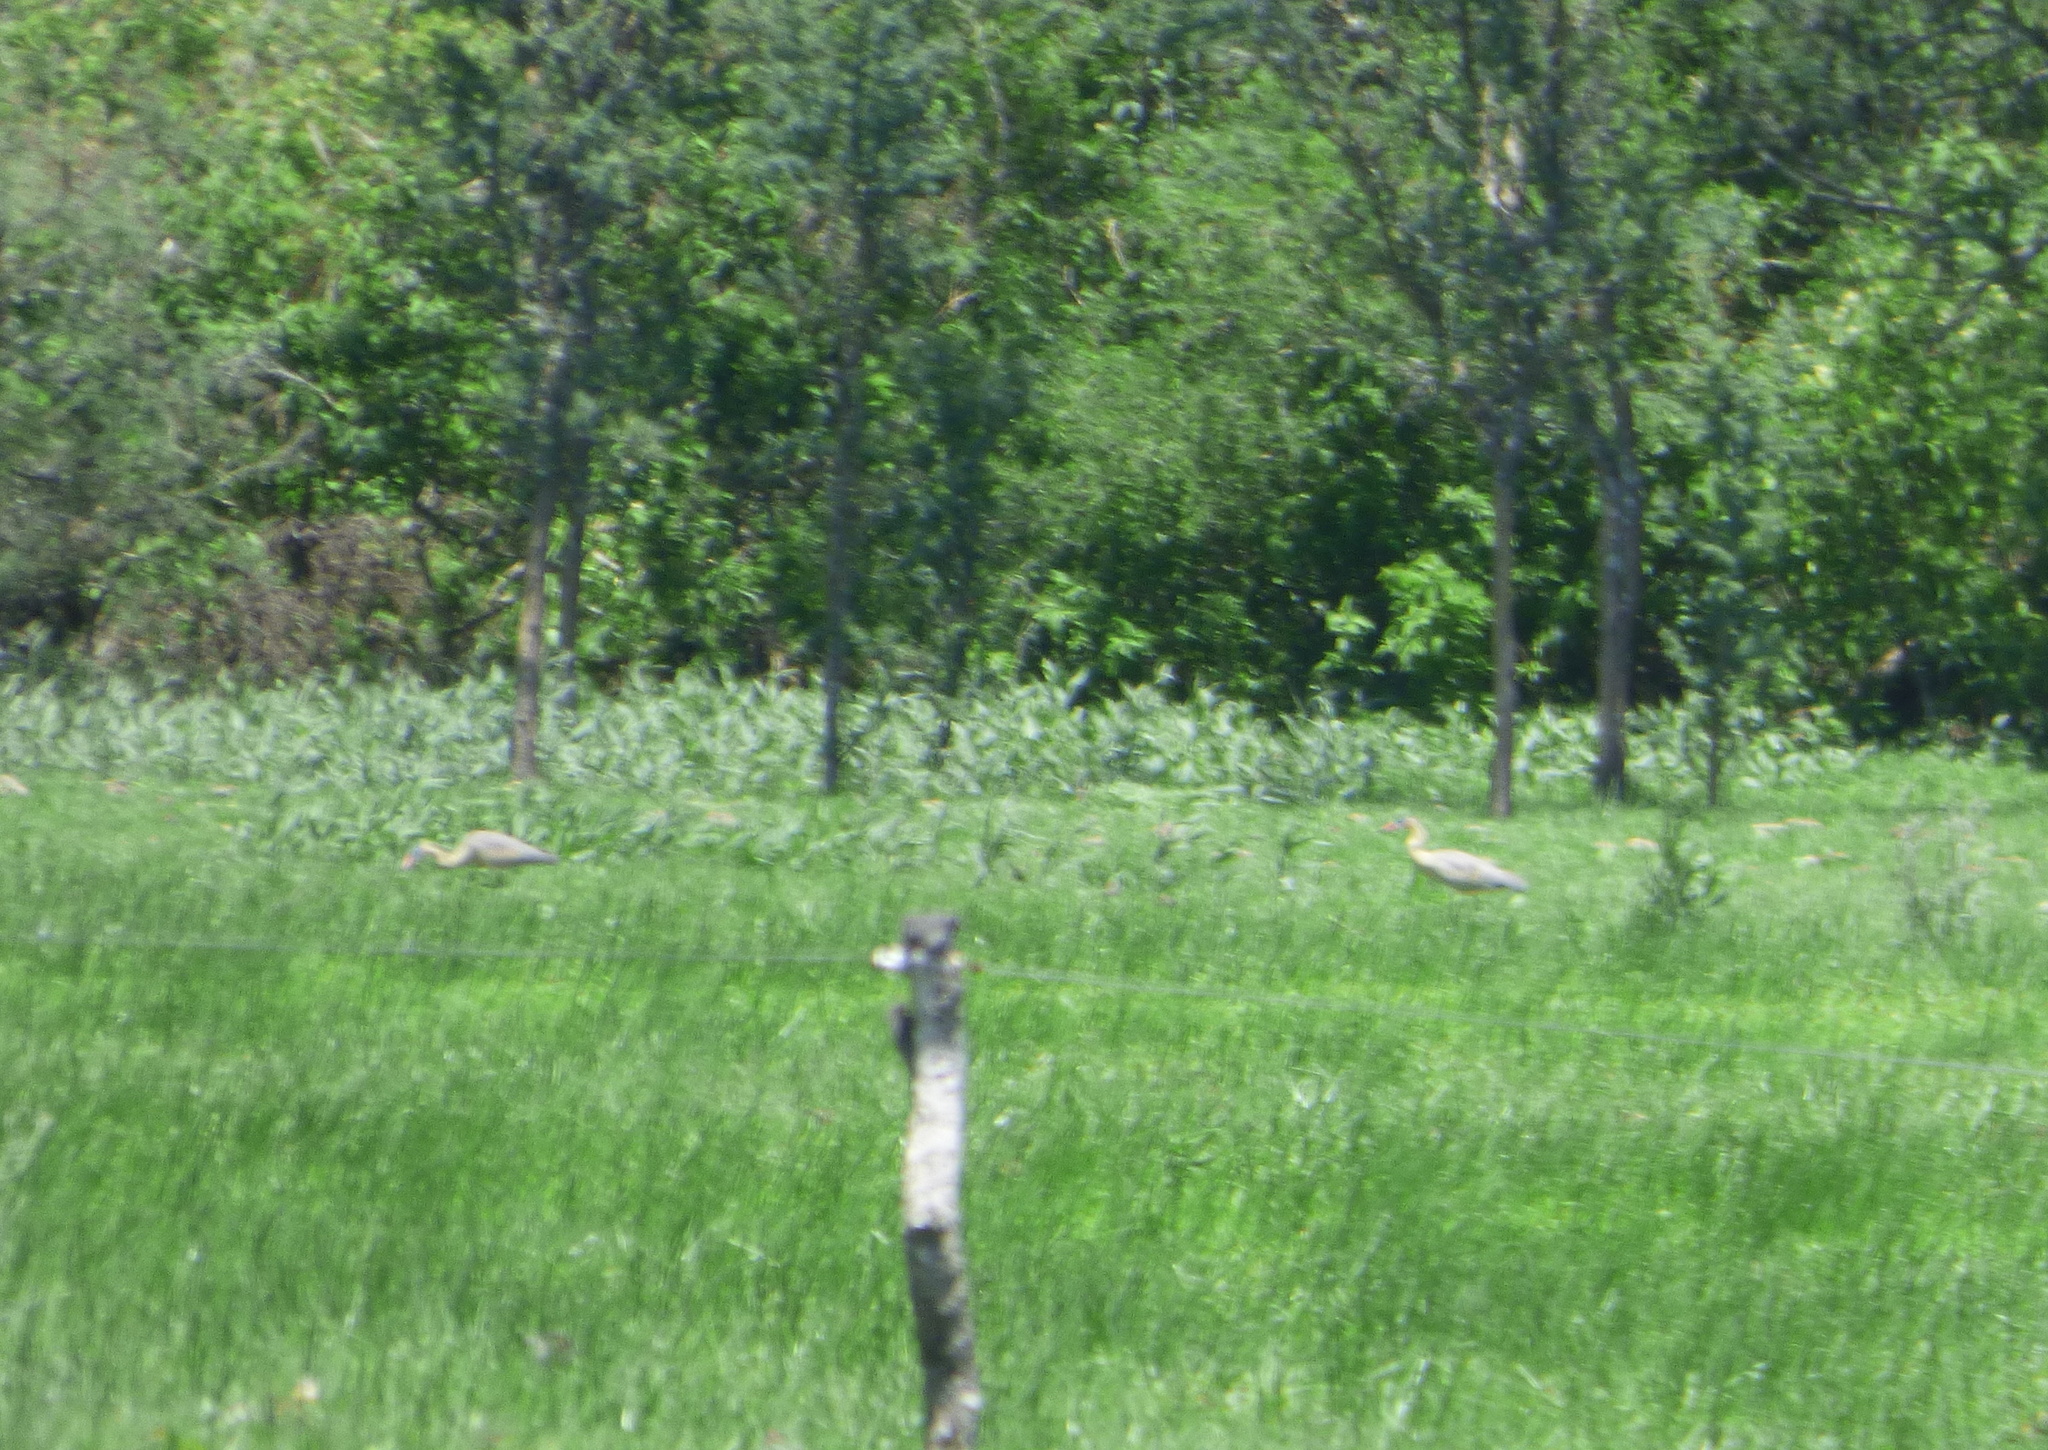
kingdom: Animalia
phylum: Chordata
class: Aves
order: Pelecaniformes
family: Ardeidae
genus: Syrigma
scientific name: Syrigma sibilatrix
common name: Whistling heron
